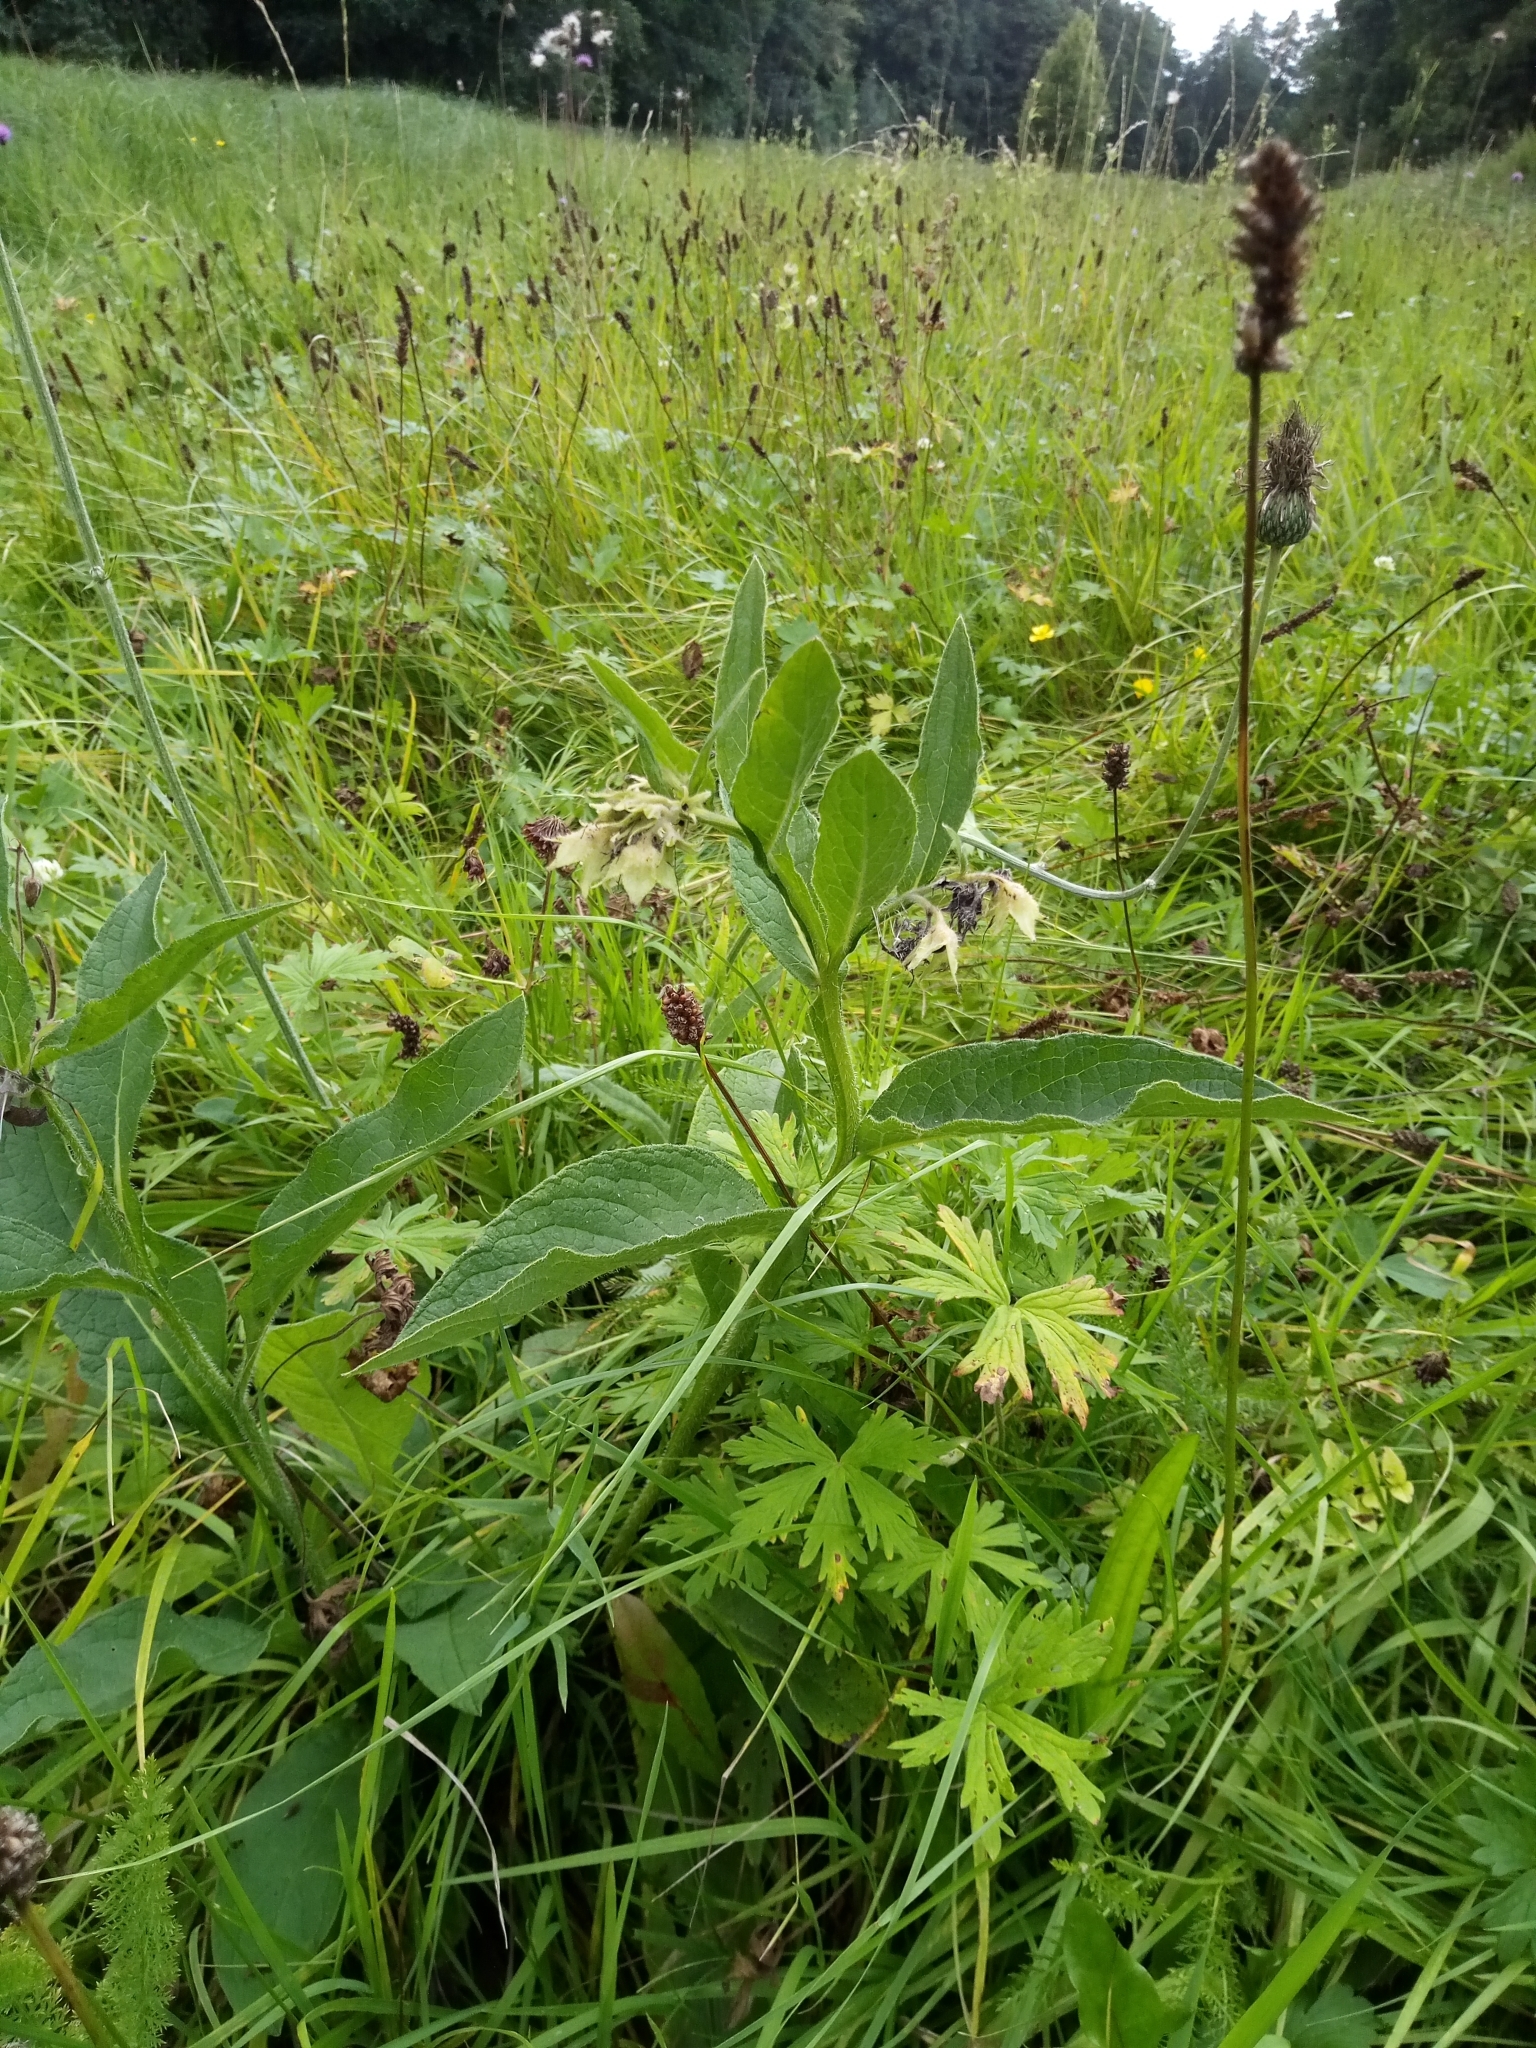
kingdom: Plantae
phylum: Tracheophyta
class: Magnoliopsida
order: Boraginales
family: Boraginaceae
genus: Symphytum
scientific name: Symphytum officinale
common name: Common comfrey
